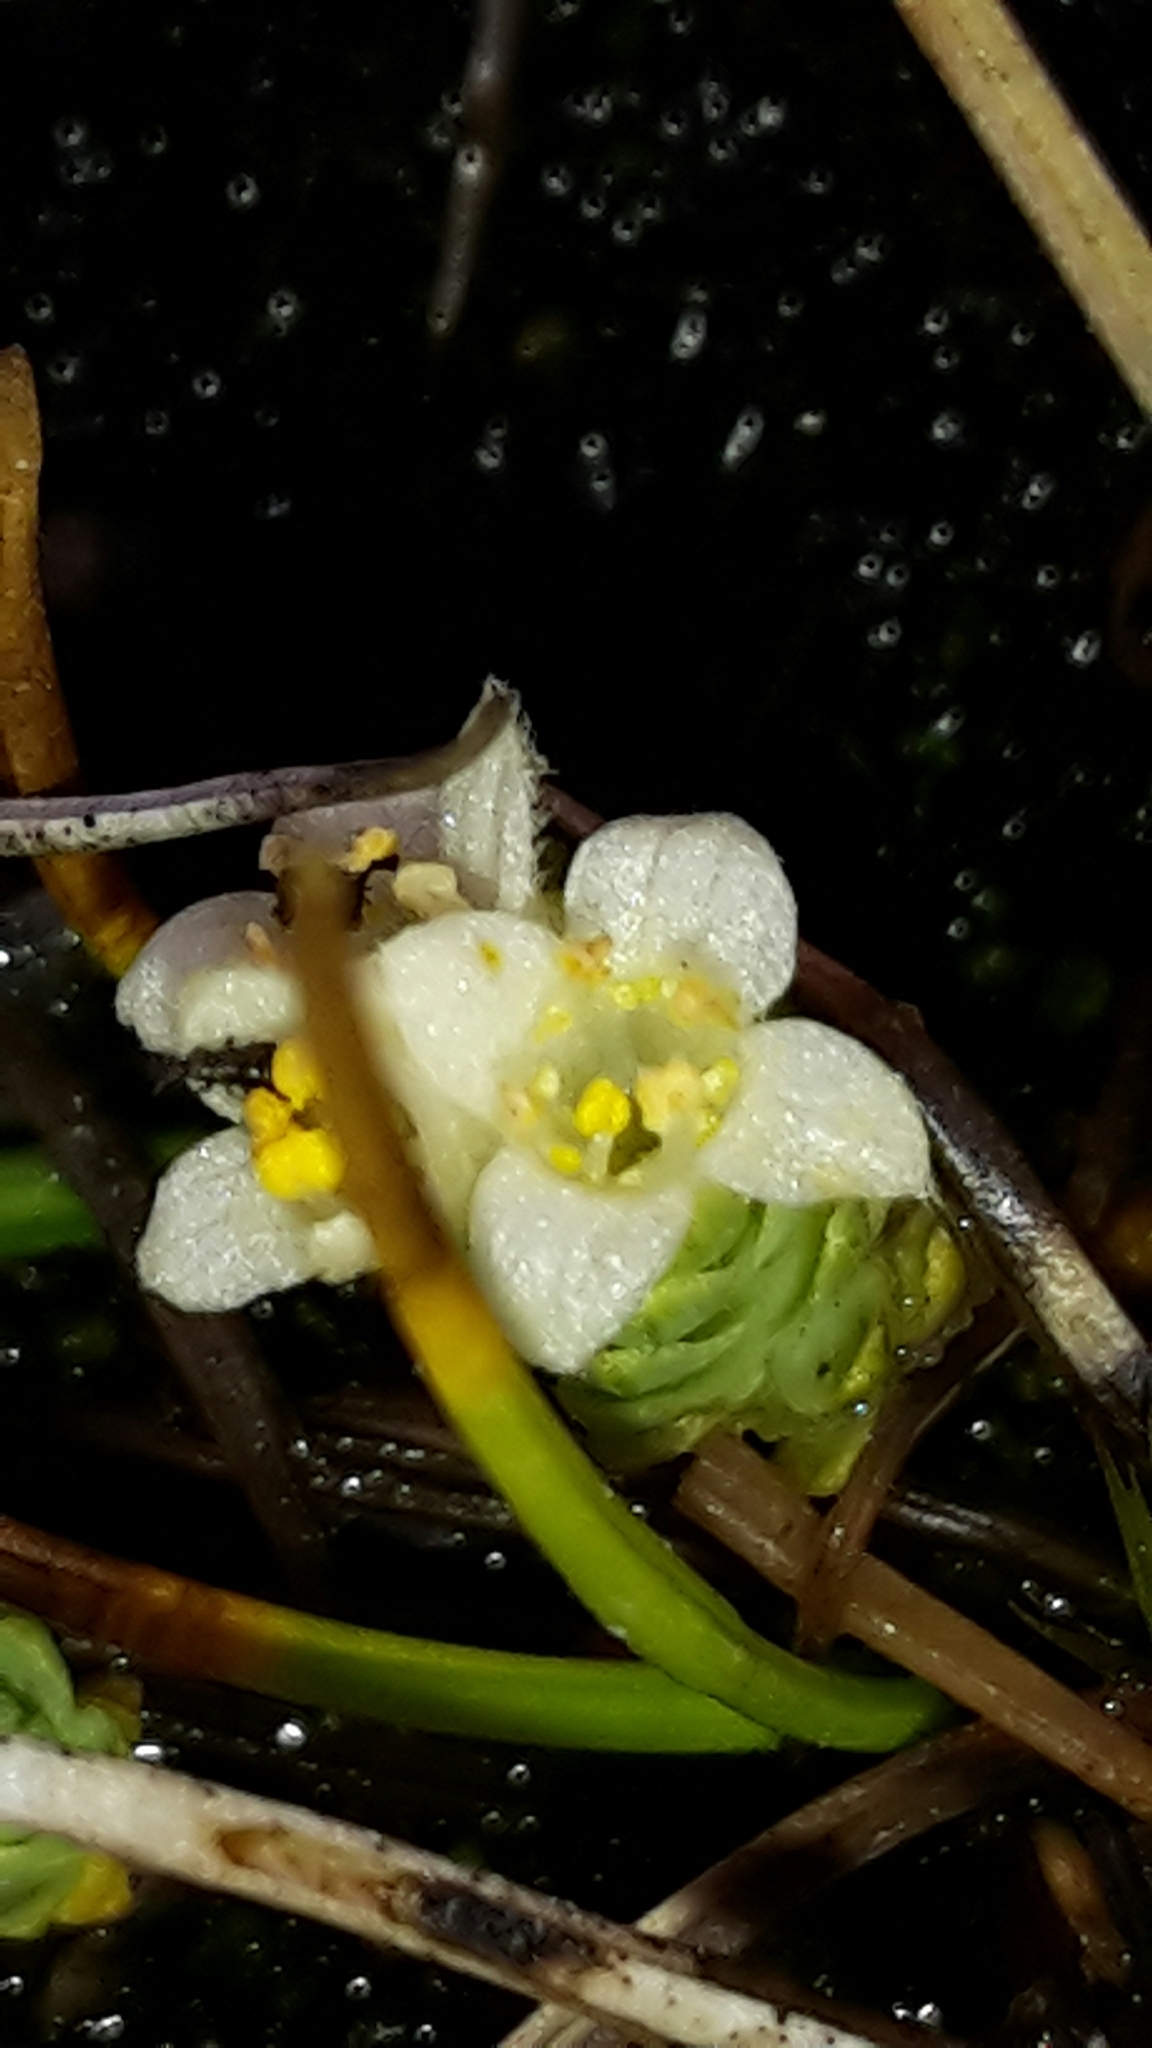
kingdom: Plantae
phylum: Tracheophyta
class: Magnoliopsida
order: Malvales
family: Thymelaeaceae
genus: Kelleria
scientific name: Kelleria paludosa
